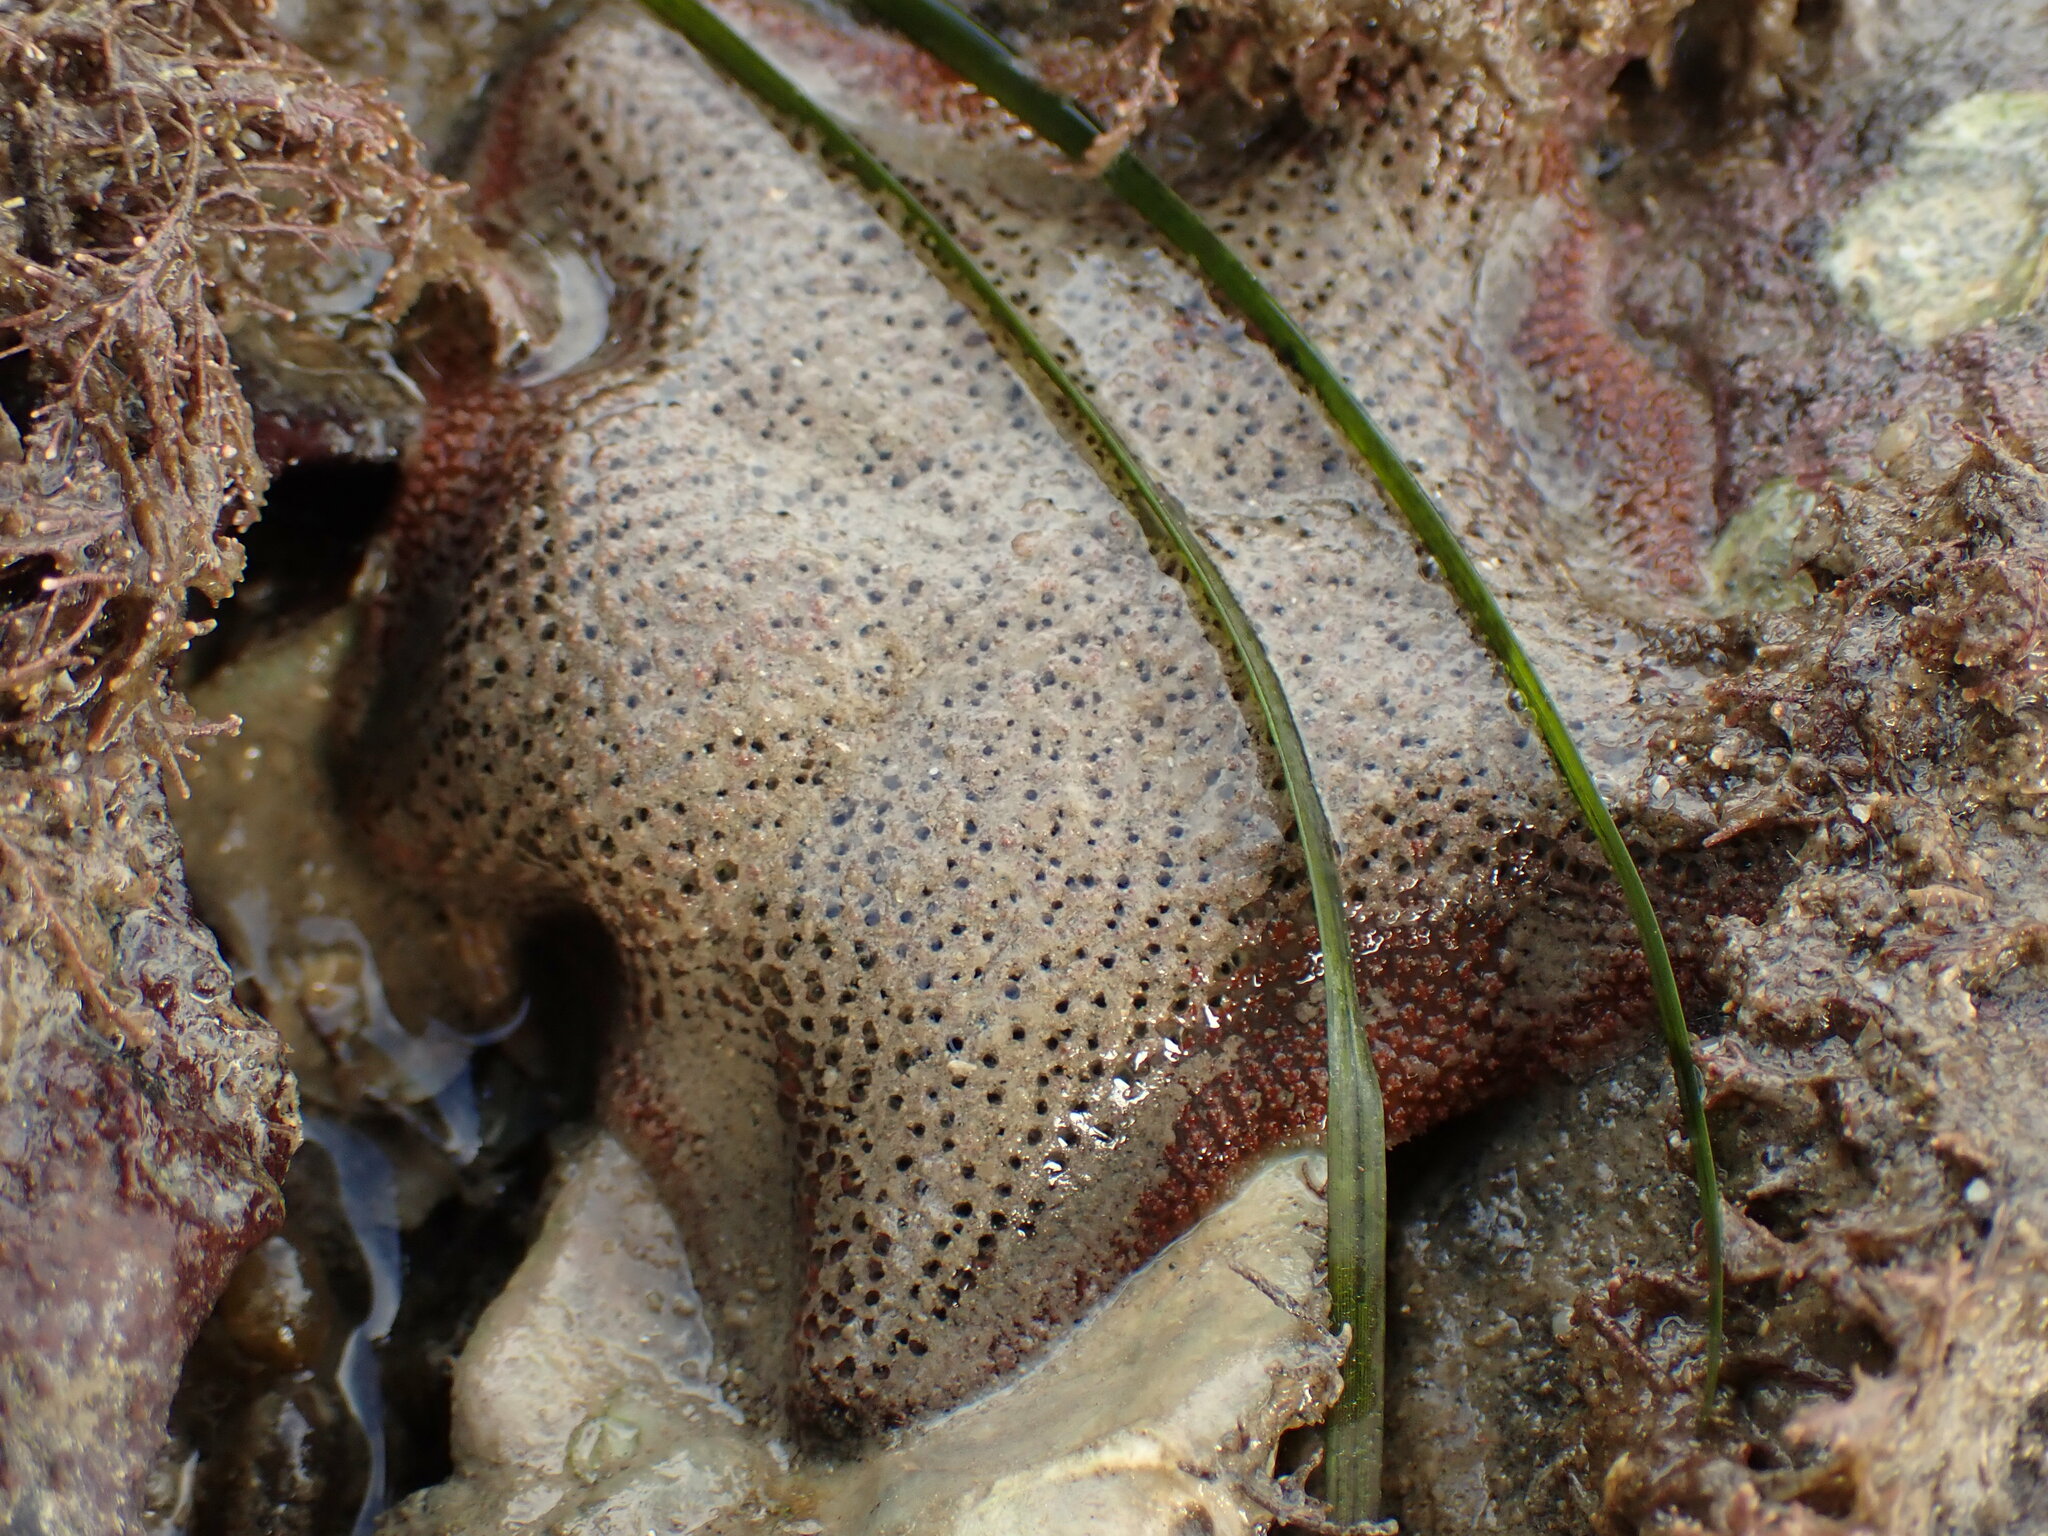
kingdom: Animalia
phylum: Echinodermata
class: Asteroidea
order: Valvatida
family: Asterinidae
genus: Patiriella
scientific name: Patiriella regularis
